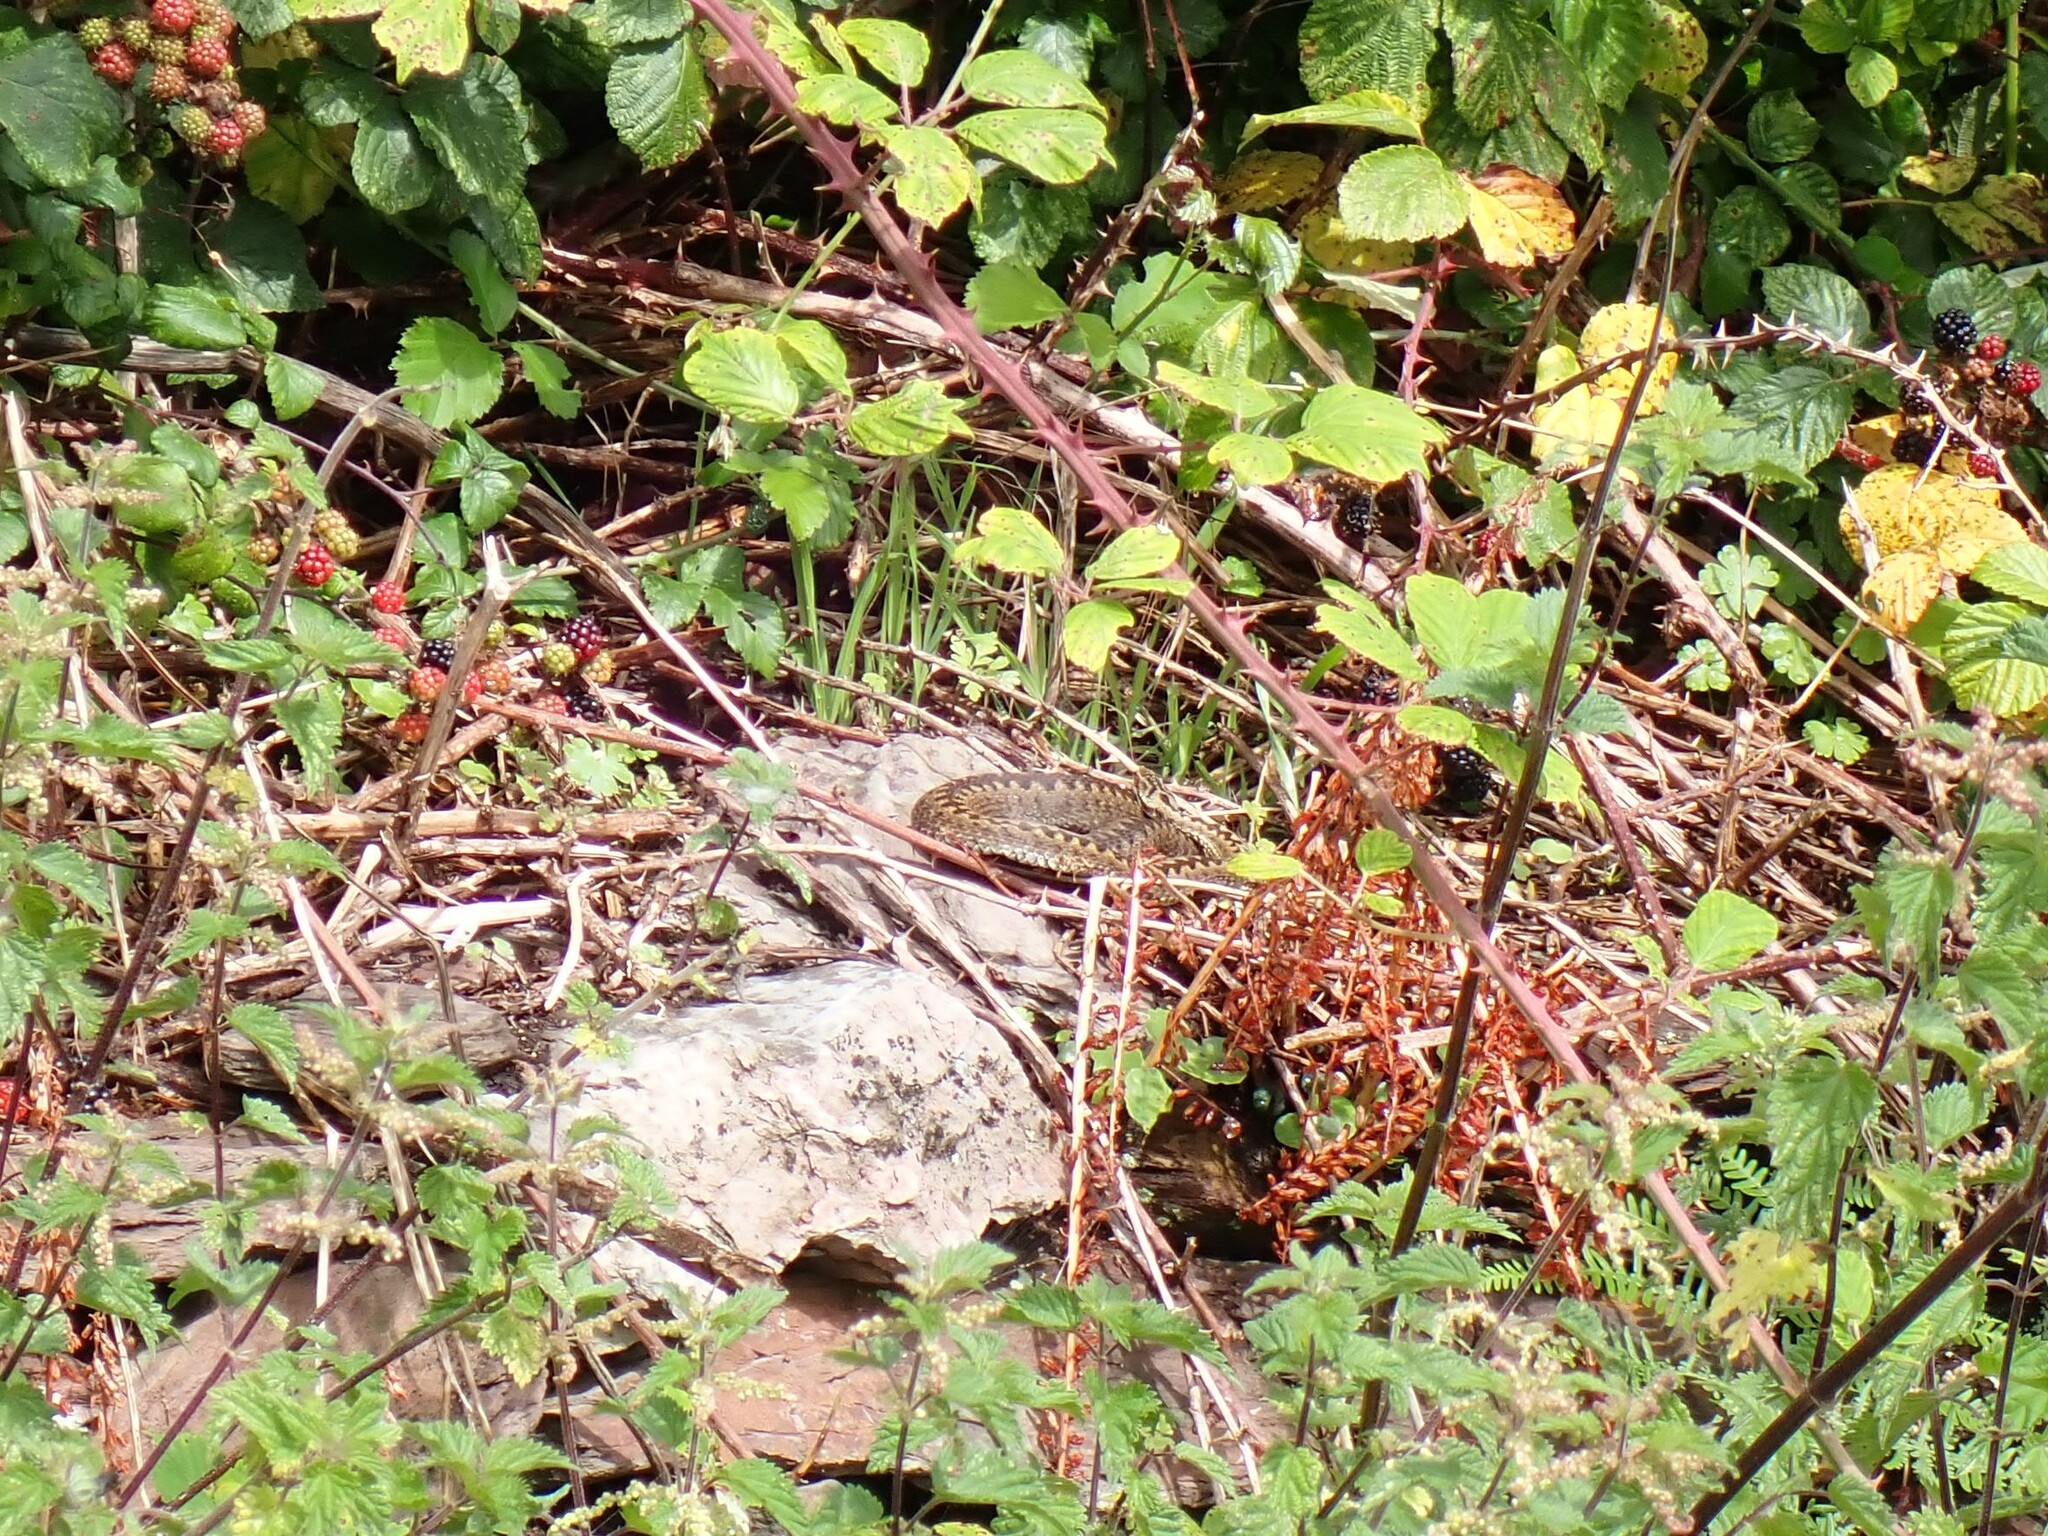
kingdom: Animalia
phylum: Chordata
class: Squamata
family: Viperidae
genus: Vipera
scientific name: Vipera berus
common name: Adder
